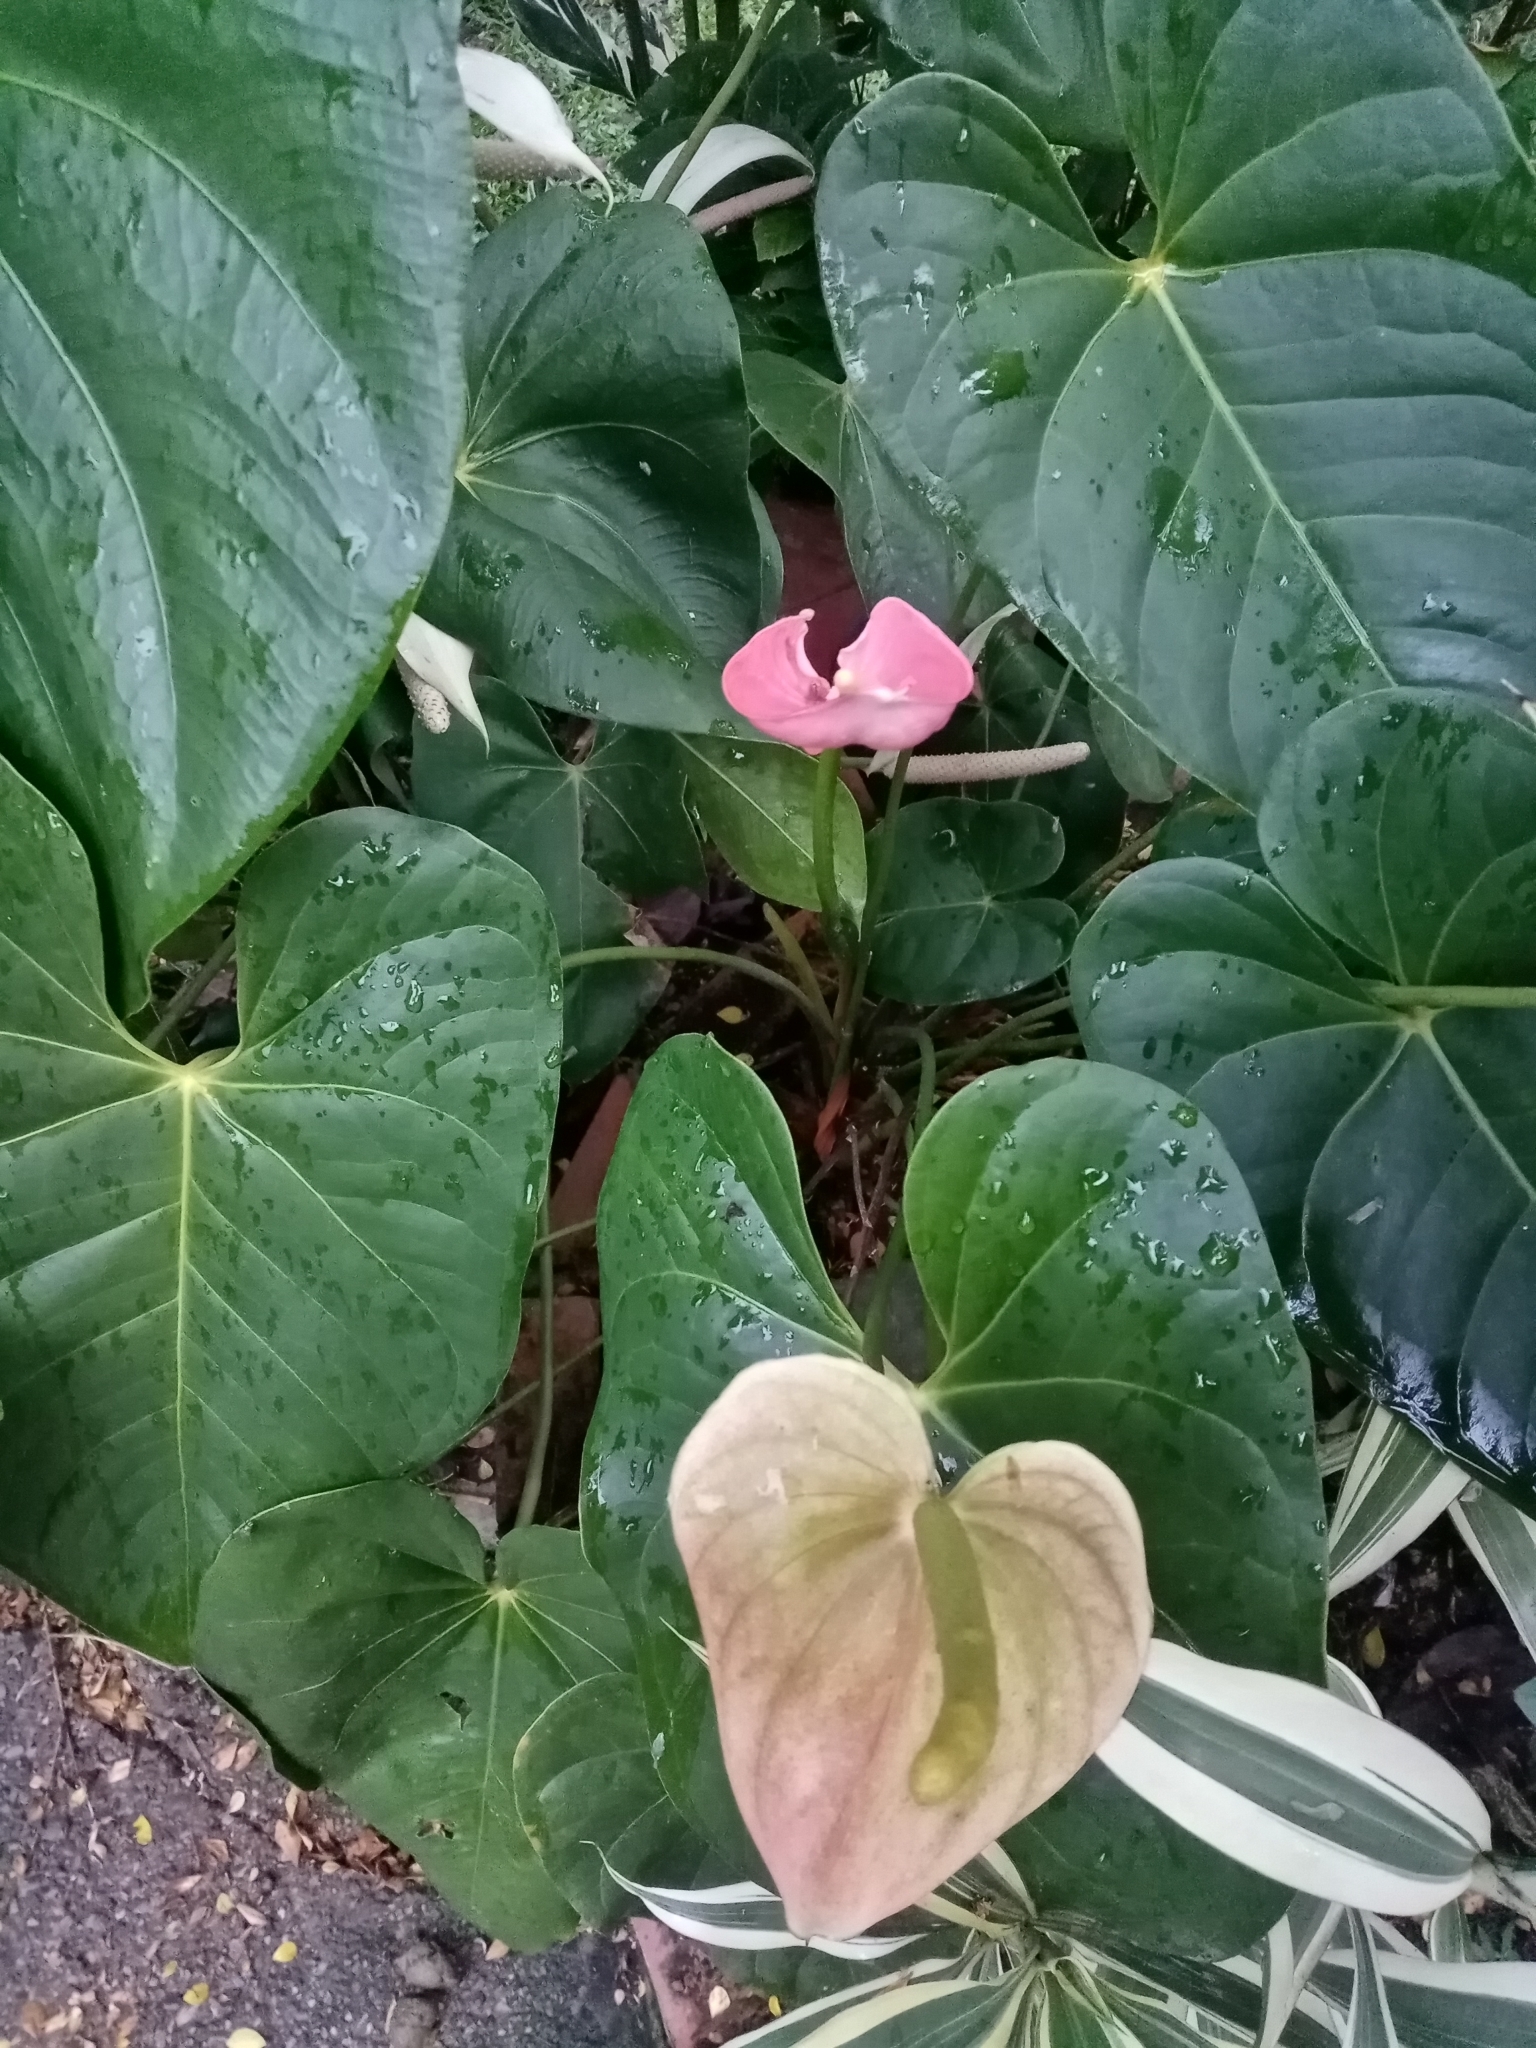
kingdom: Plantae
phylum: Tracheophyta
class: Liliopsida
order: Alismatales
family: Araceae
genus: Anthurium
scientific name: Anthurium andraeanum
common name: Flamingo-flower
